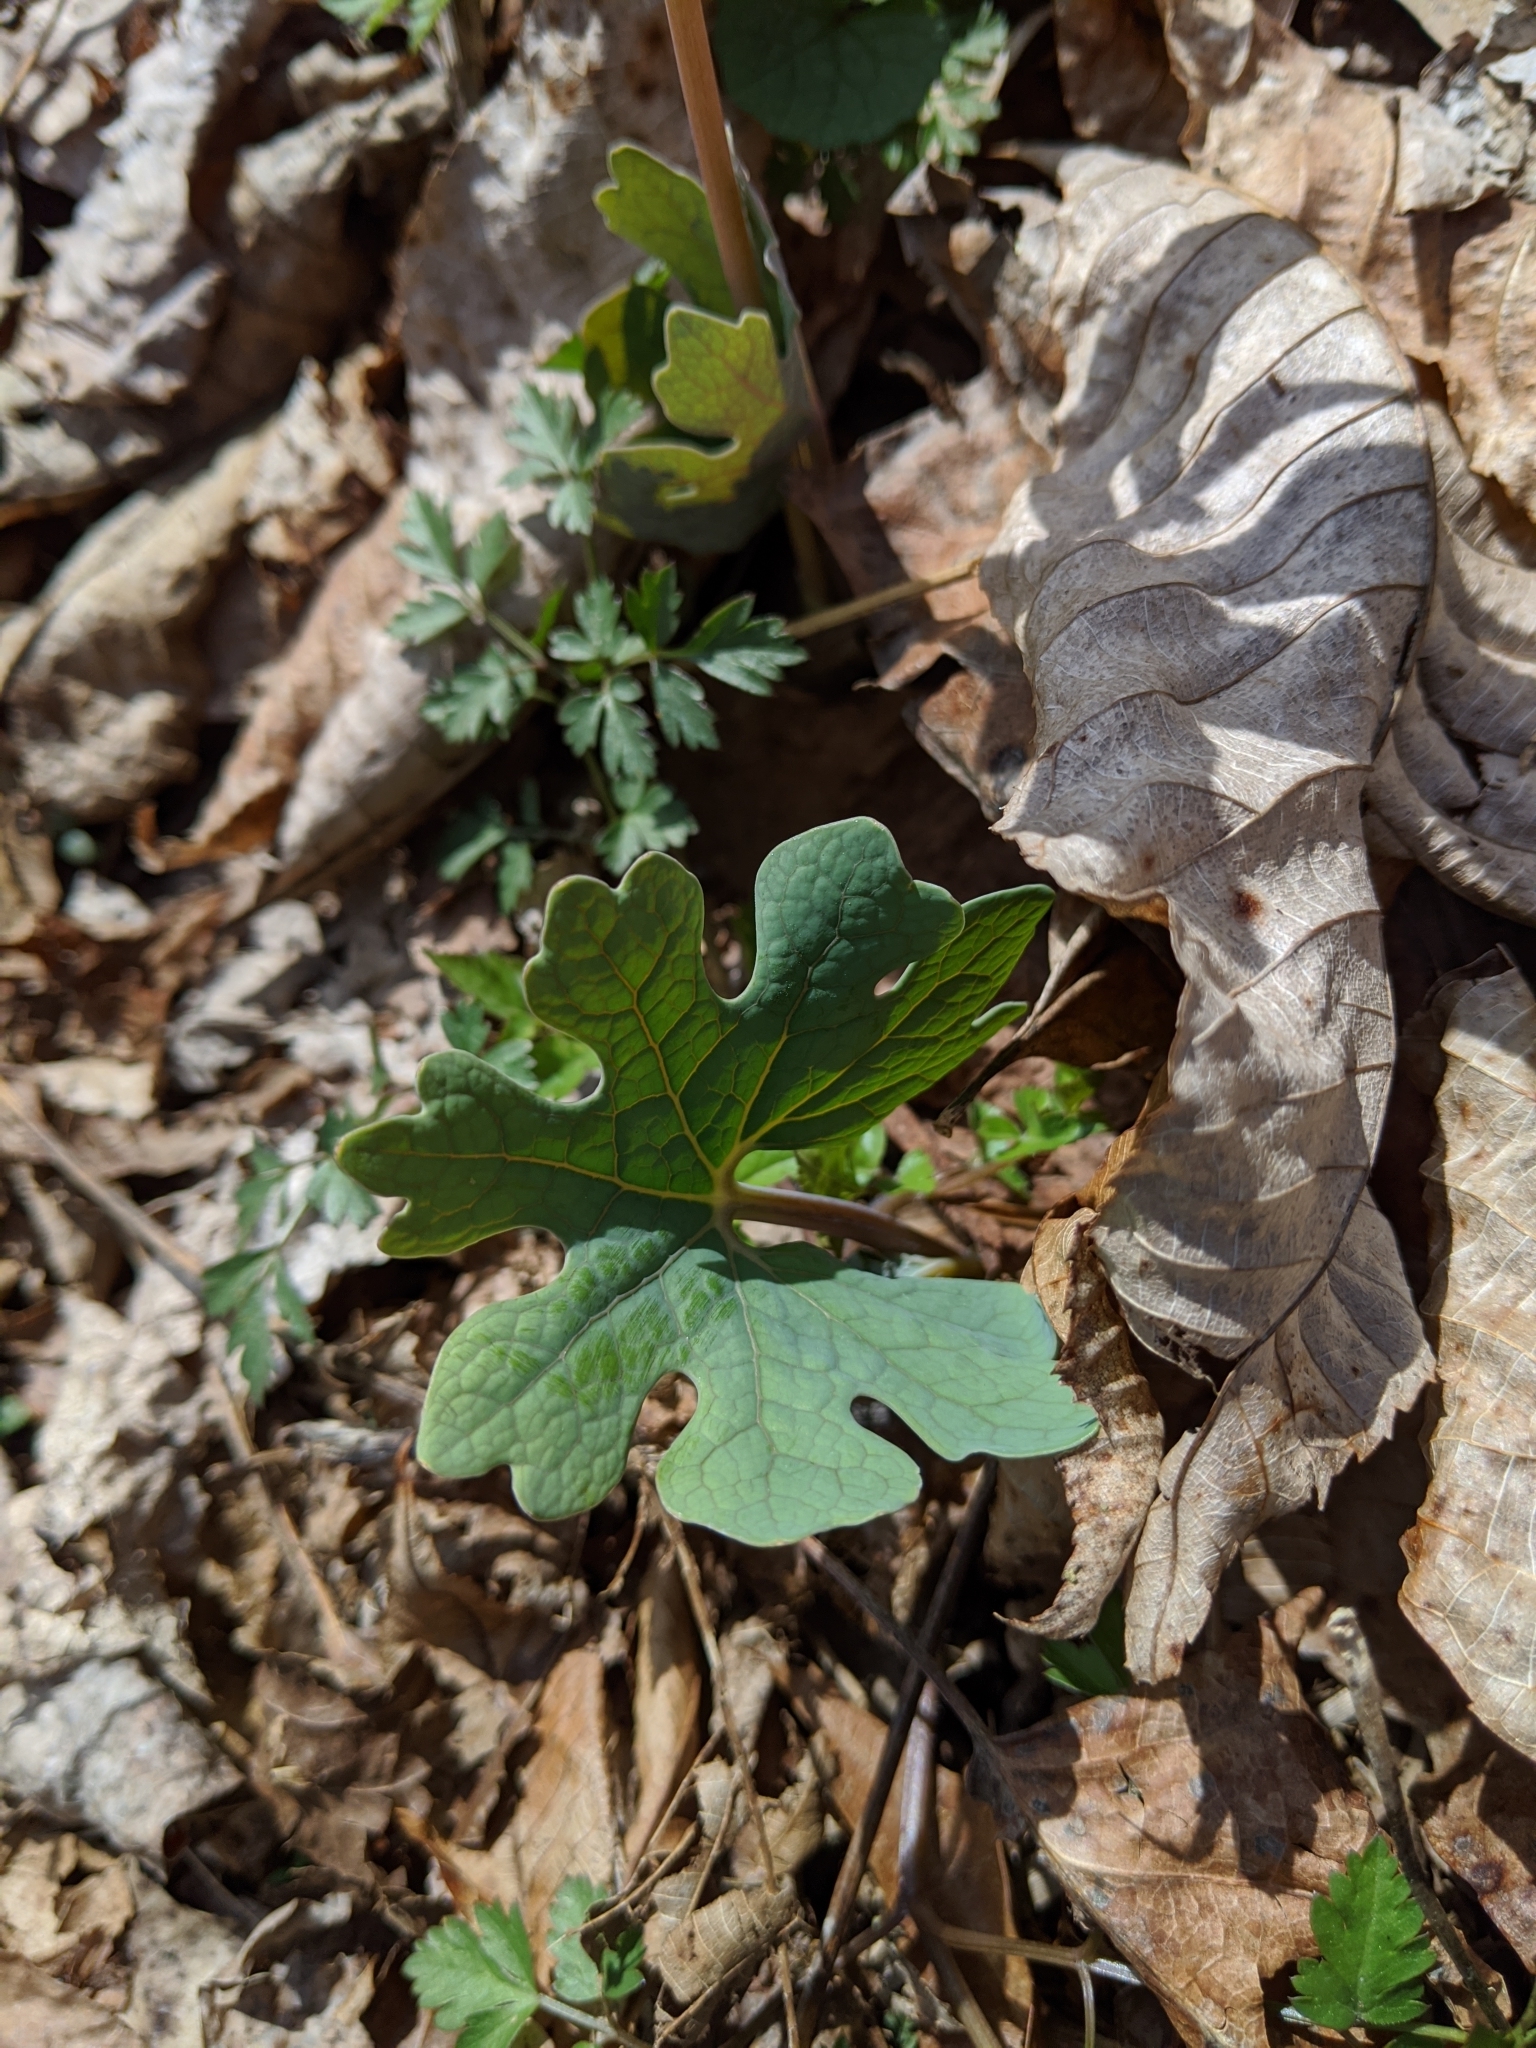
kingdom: Plantae
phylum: Tracheophyta
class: Magnoliopsida
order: Ranunculales
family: Papaveraceae
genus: Sanguinaria
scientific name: Sanguinaria canadensis
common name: Bloodroot
